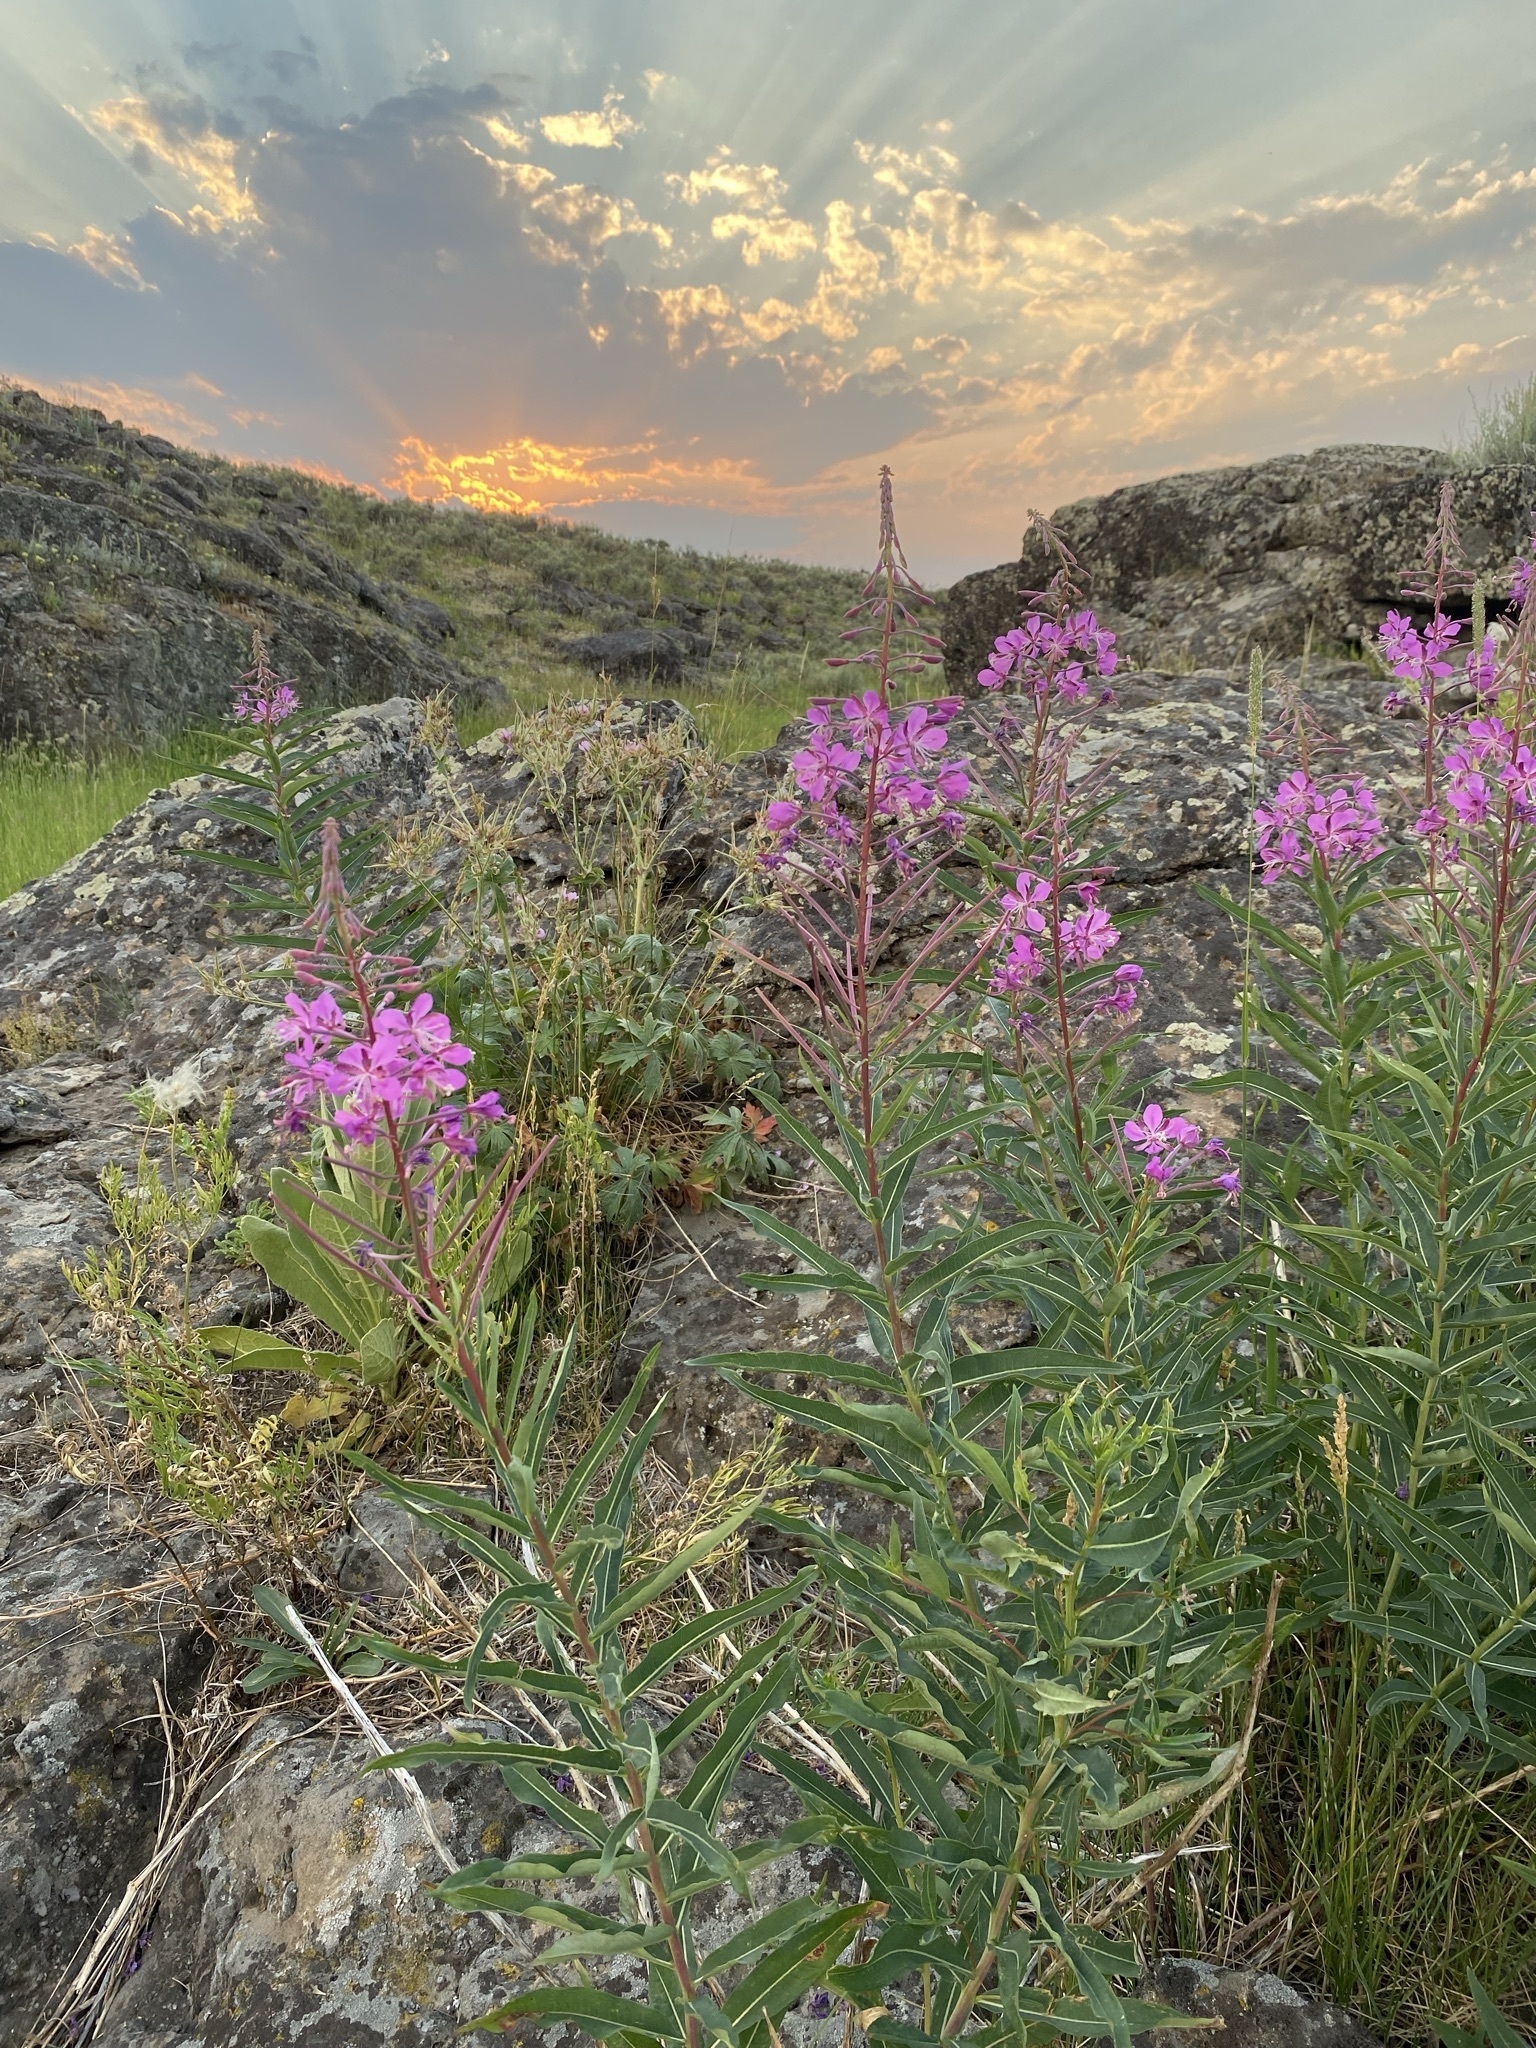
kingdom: Plantae
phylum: Tracheophyta
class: Magnoliopsida
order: Myrtales
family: Onagraceae
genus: Chamaenerion
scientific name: Chamaenerion angustifolium
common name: Fireweed
